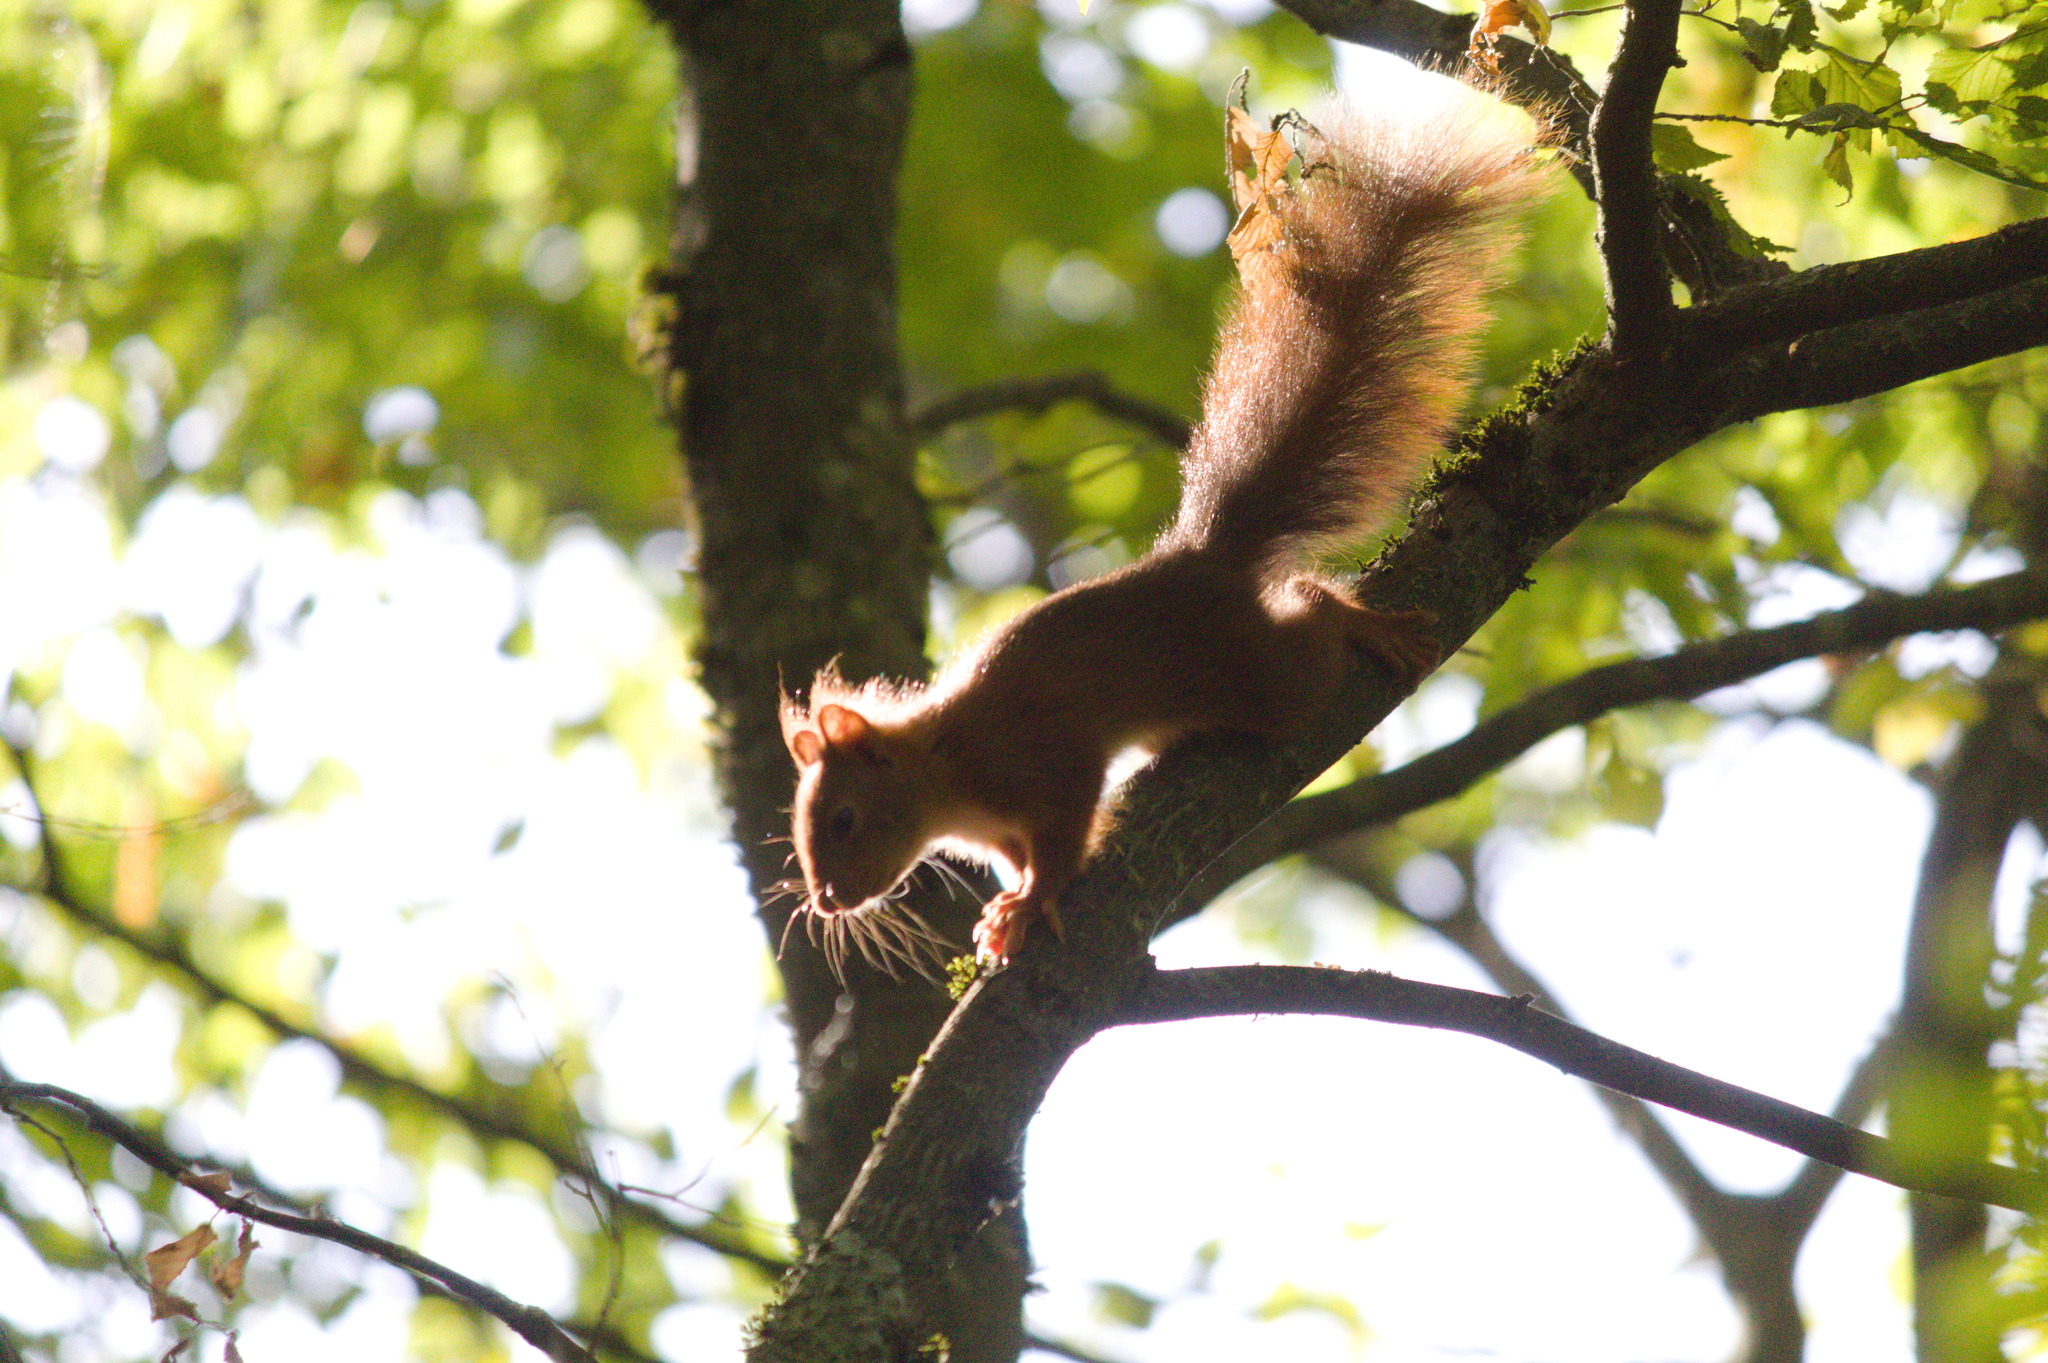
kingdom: Animalia
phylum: Chordata
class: Mammalia
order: Rodentia
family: Sciuridae
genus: Sciurus
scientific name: Sciurus vulgaris
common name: Eurasian red squirrel
